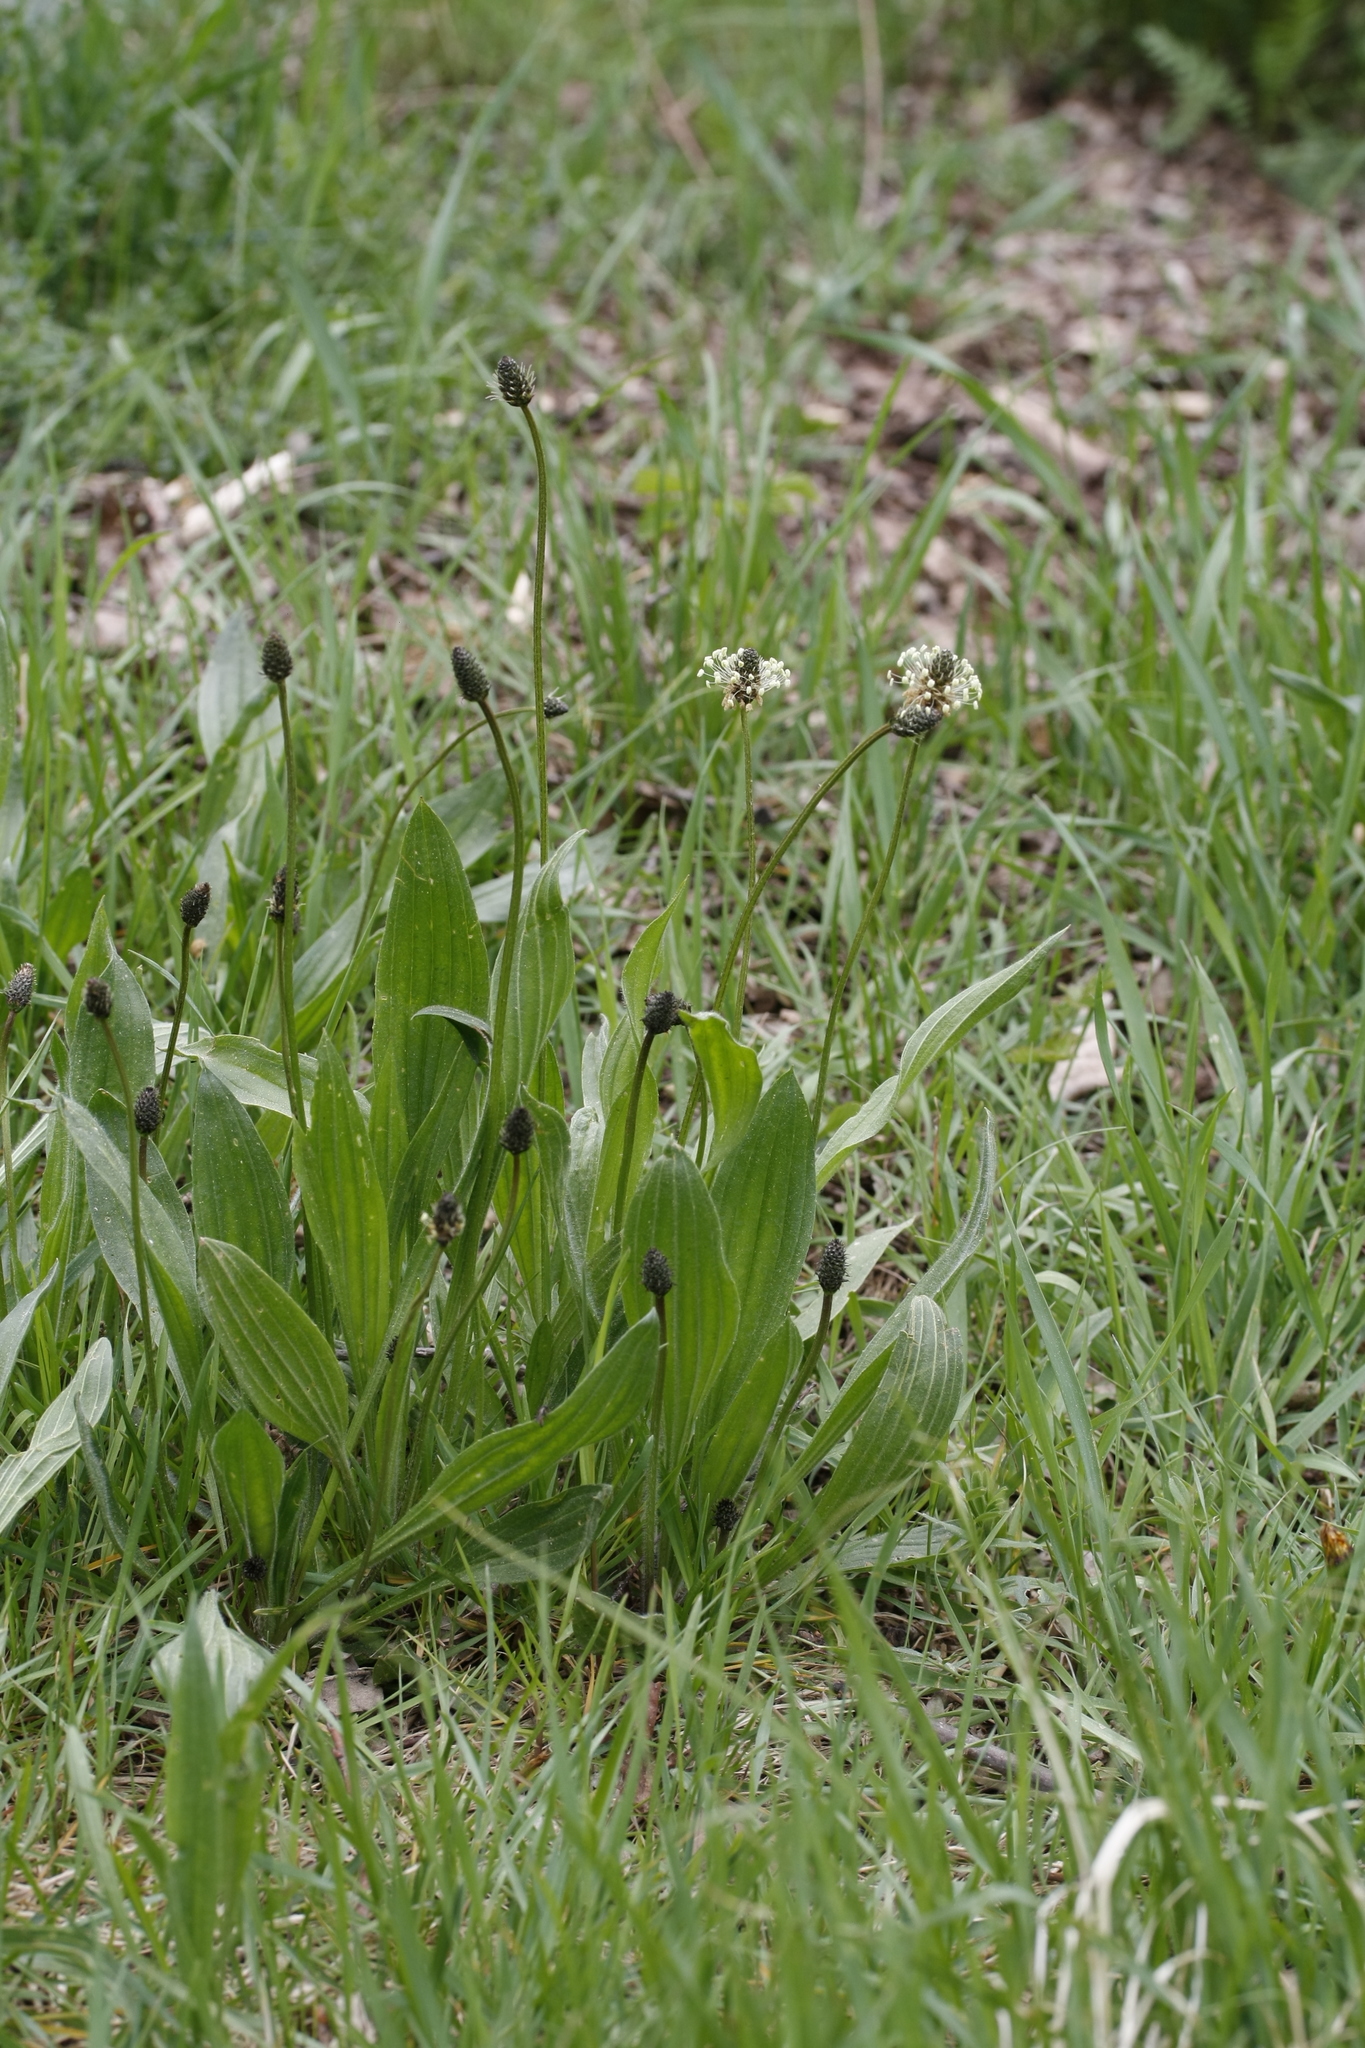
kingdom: Plantae
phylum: Tracheophyta
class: Magnoliopsida
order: Lamiales
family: Plantaginaceae
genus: Plantago
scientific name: Plantago lanceolata
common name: Ribwort plantain
